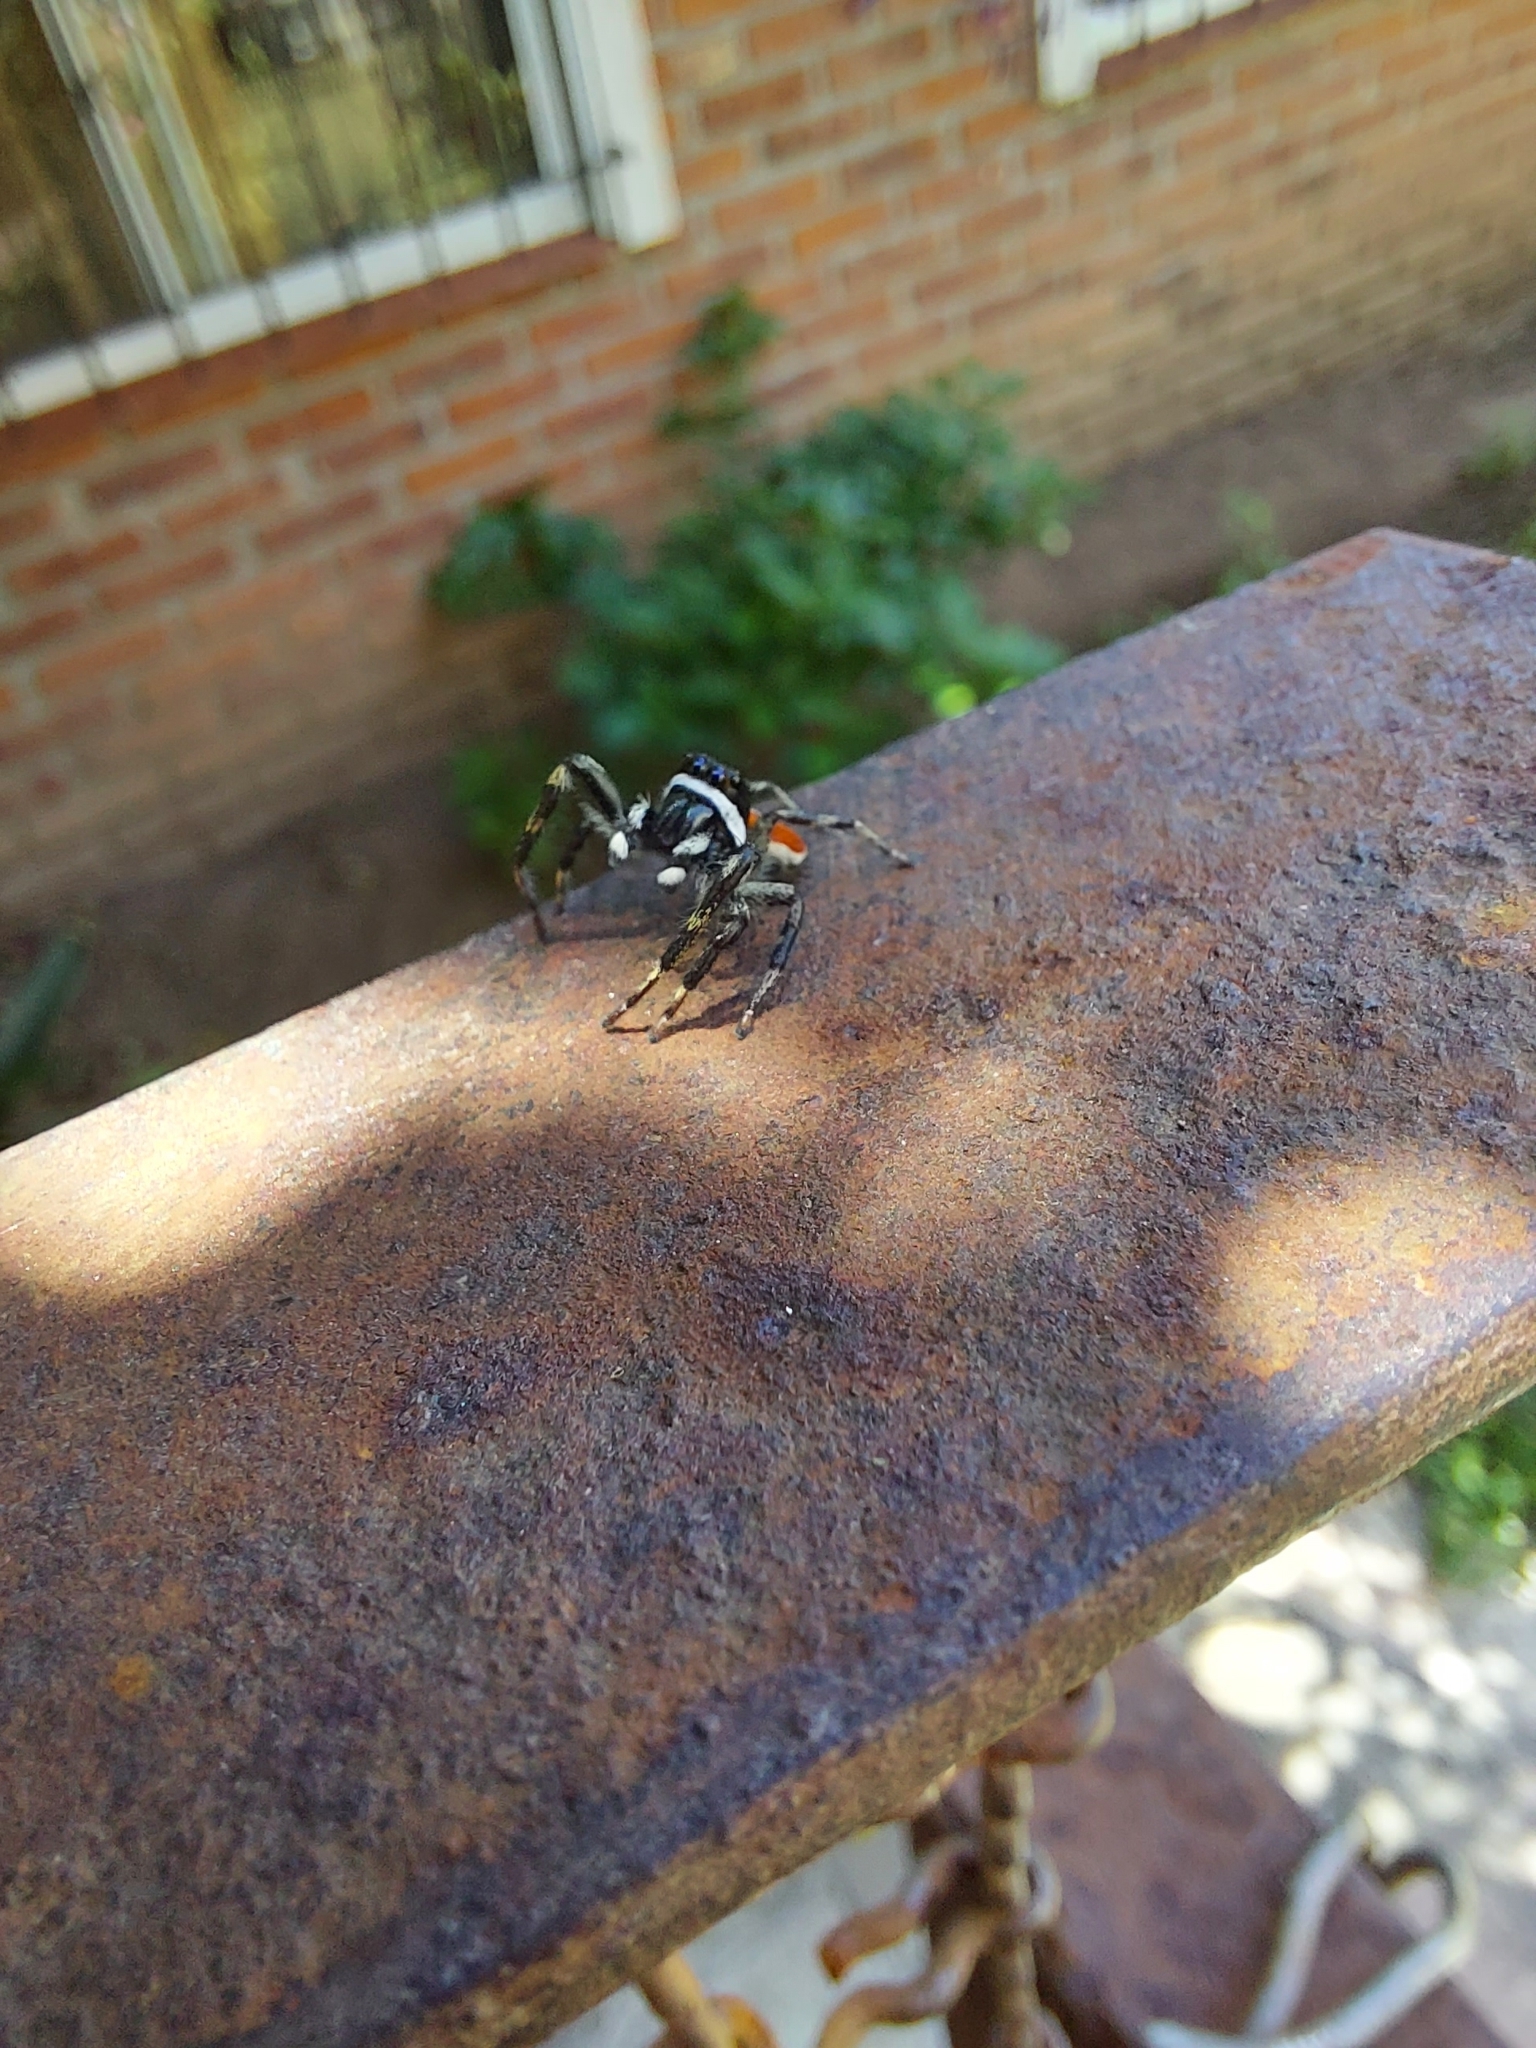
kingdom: Animalia
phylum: Arthropoda
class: Arachnida
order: Araneae
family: Salticidae
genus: Phiale
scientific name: Phiale roburifoliata
